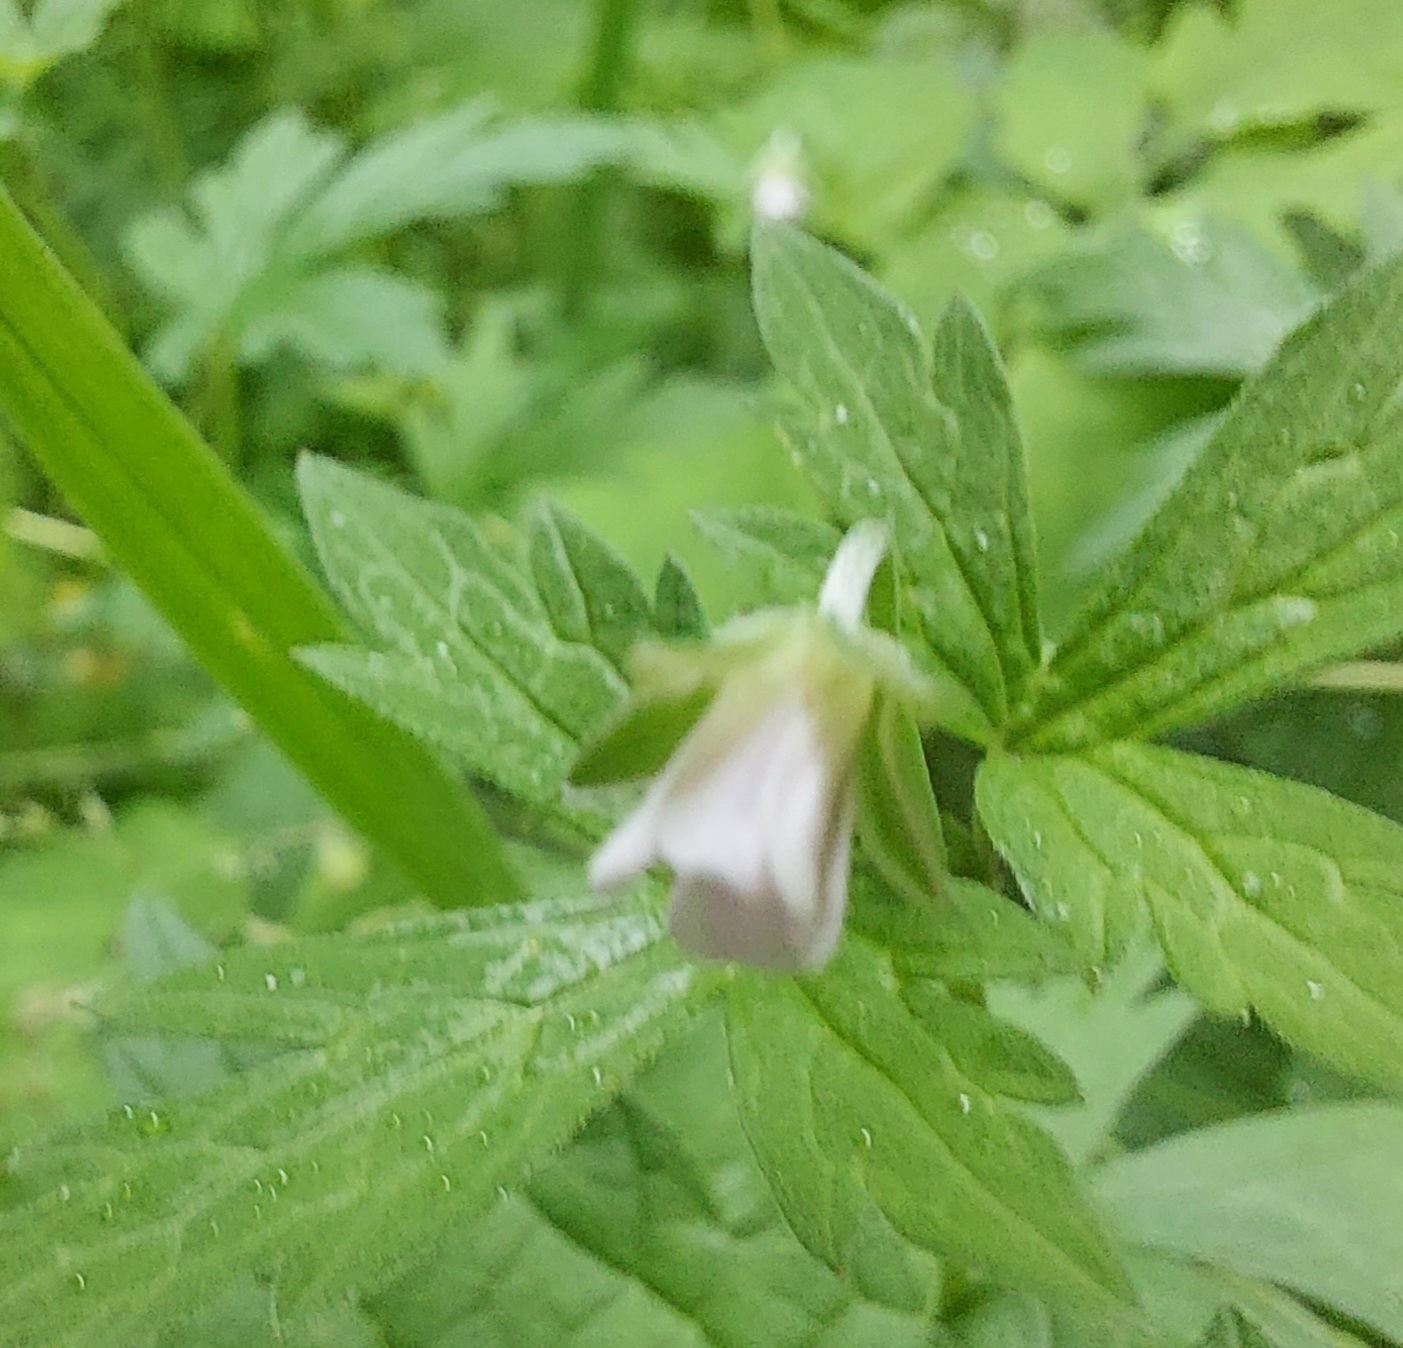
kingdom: Plantae
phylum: Tracheophyta
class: Magnoliopsida
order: Geraniales
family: Geraniaceae
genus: Geranium
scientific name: Geranium sibiricum
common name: Siberian crane's-bill
